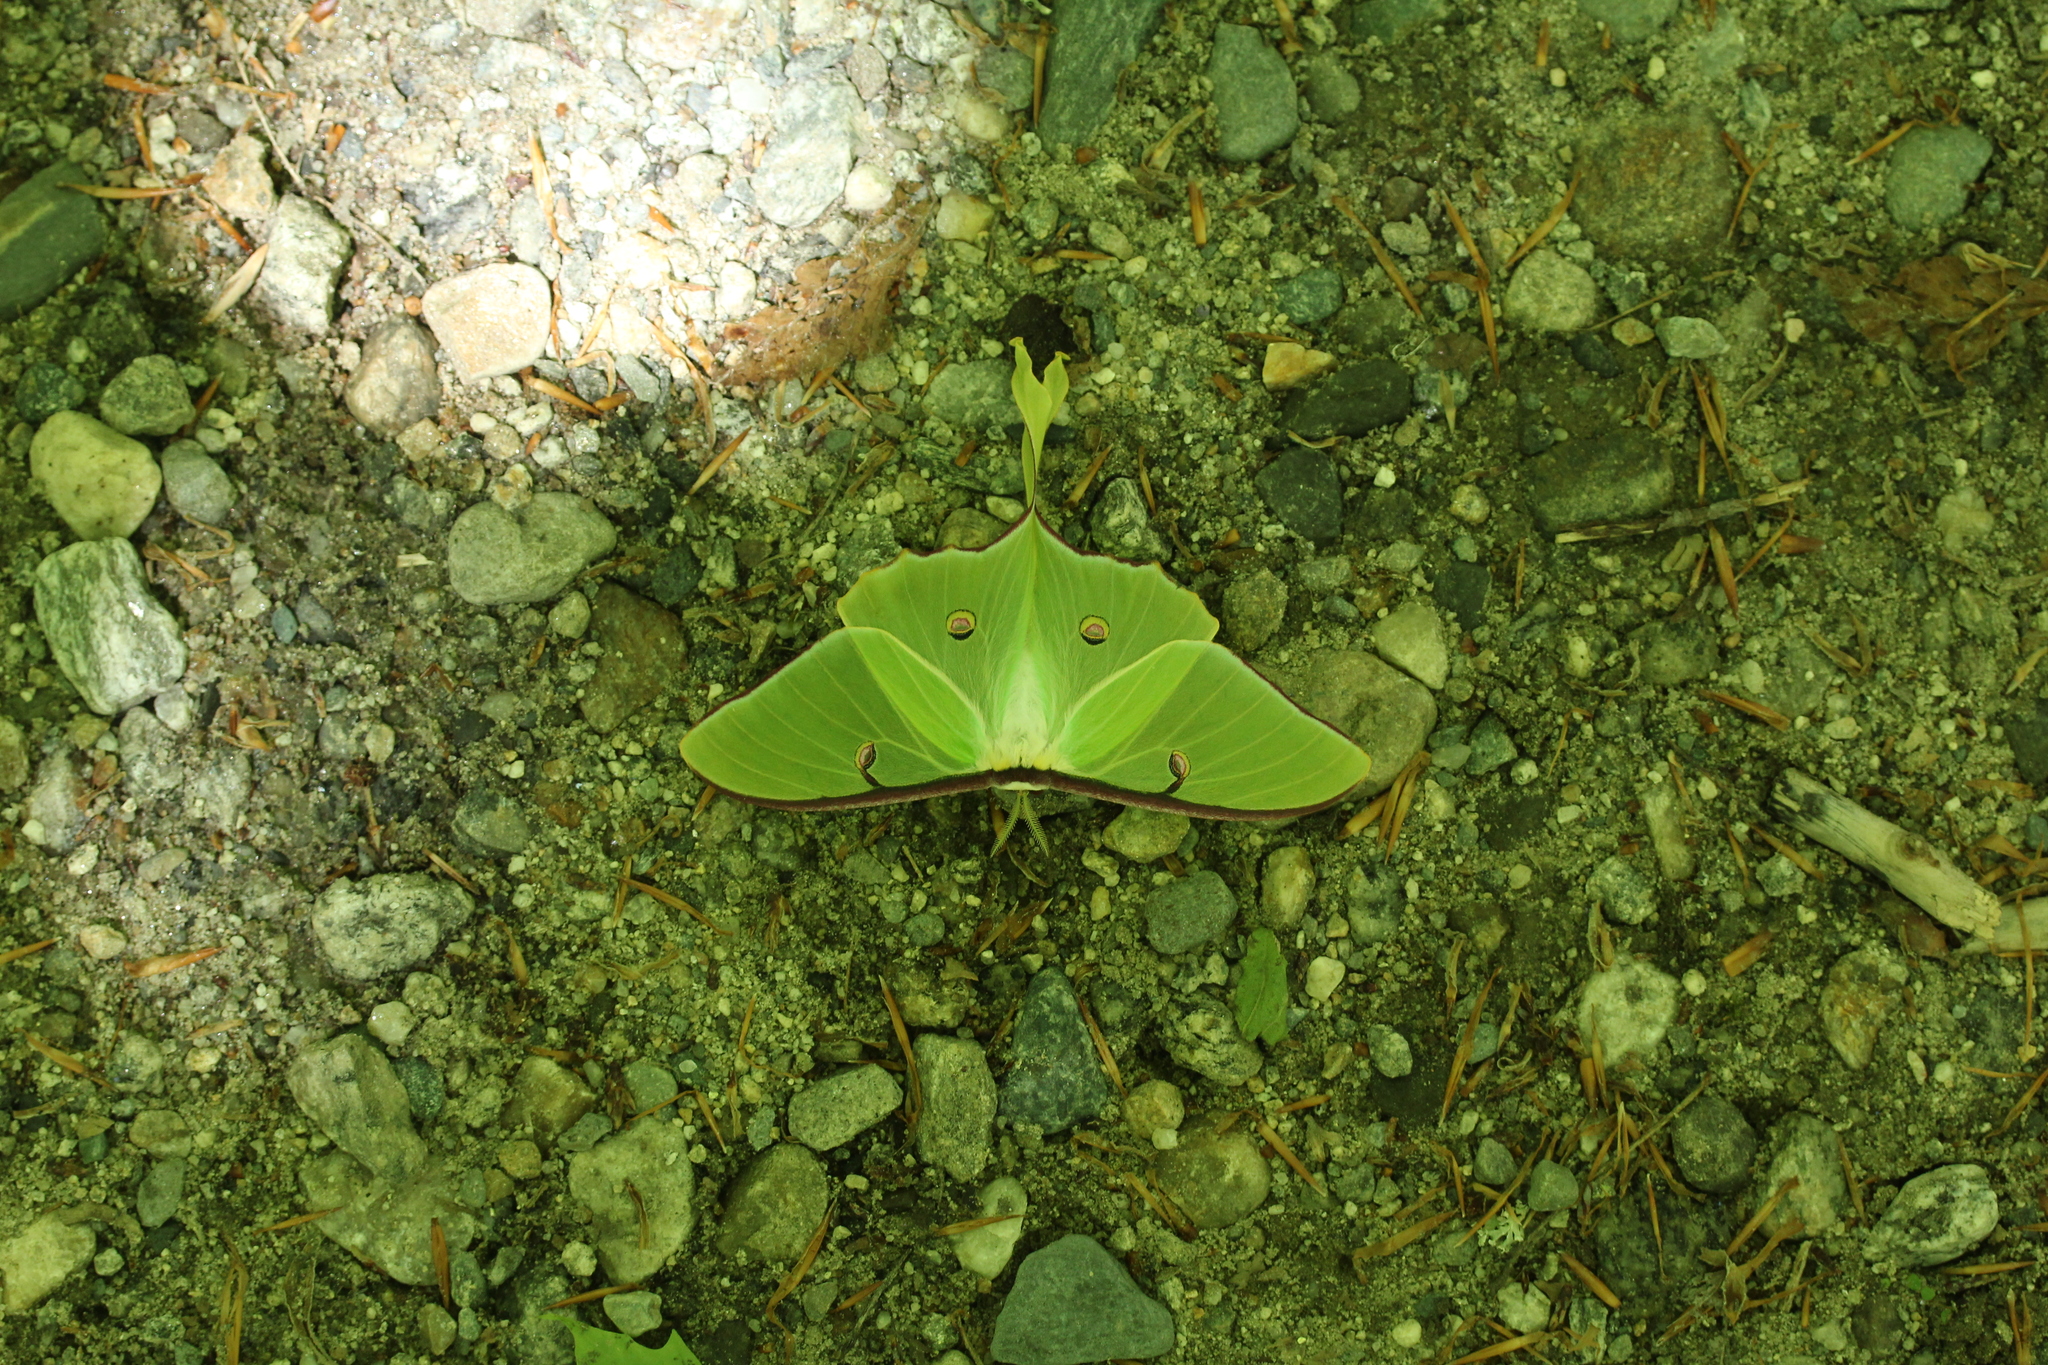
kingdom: Animalia
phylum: Arthropoda
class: Insecta
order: Lepidoptera
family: Saturniidae
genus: Actias
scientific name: Actias luna
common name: Luna moth
